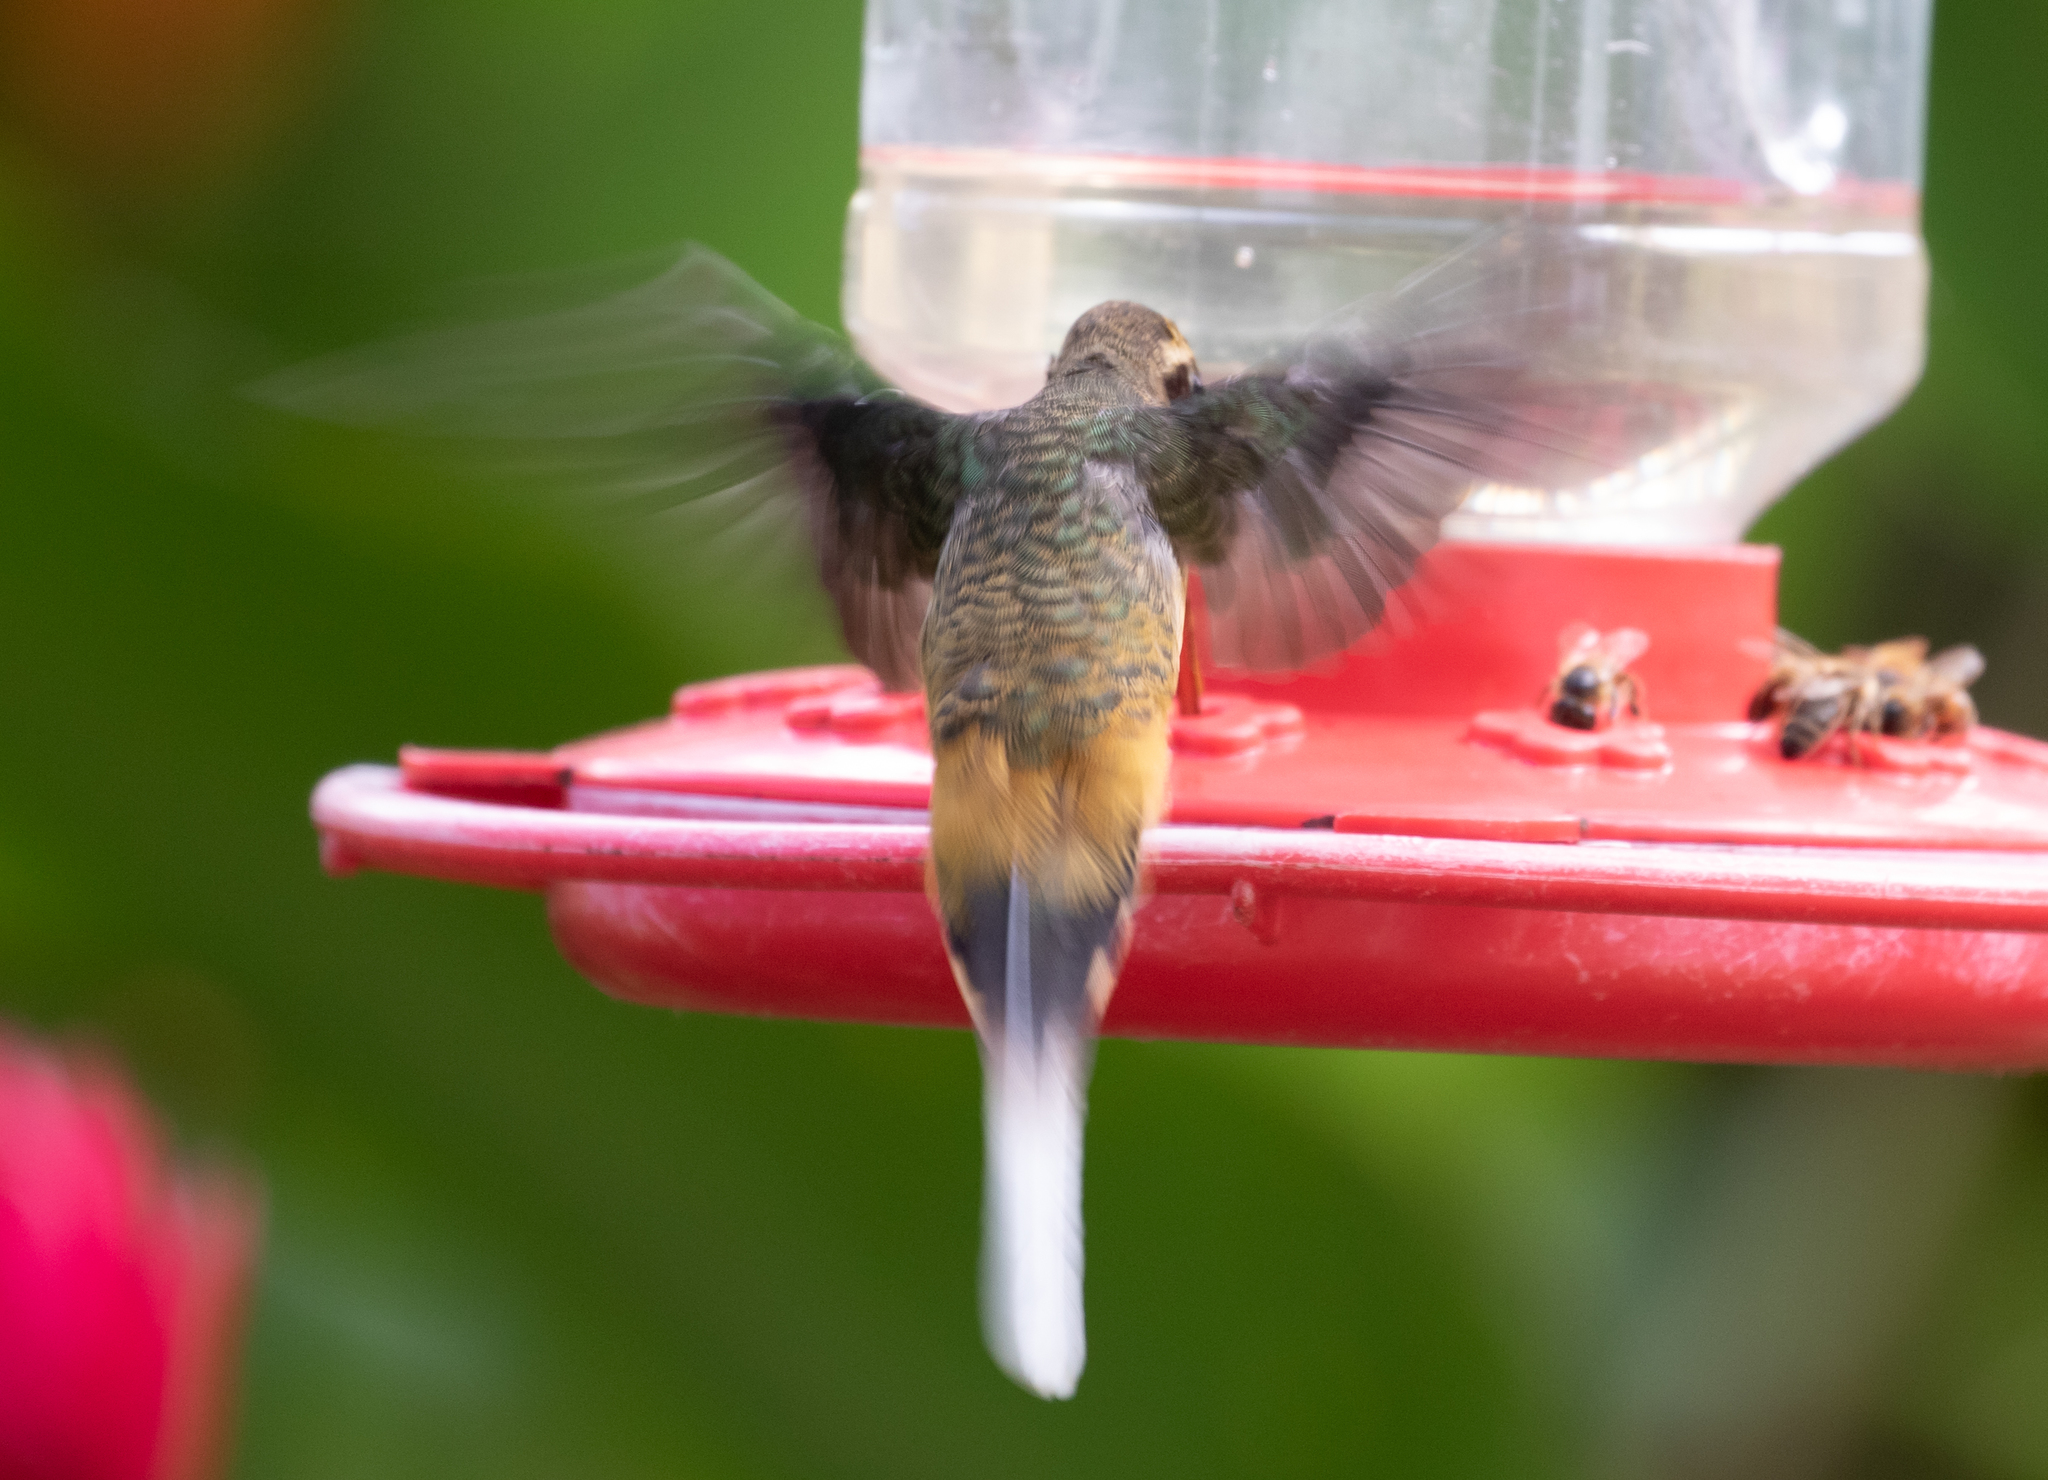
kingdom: Animalia
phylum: Chordata
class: Aves
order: Apodiformes
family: Trochilidae
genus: Phaethornis
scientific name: Phaethornis syrmatophorus
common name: Tawny-bellied hermit
